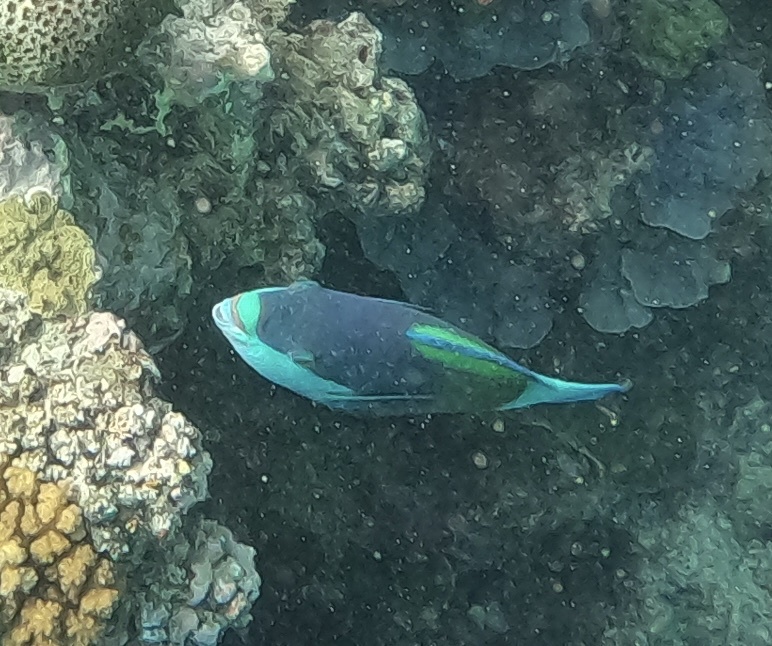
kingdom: Animalia
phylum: Chordata
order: Perciformes
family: Scaridae
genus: Scarus
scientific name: Scarus frenatus
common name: Bridled parrotfish
